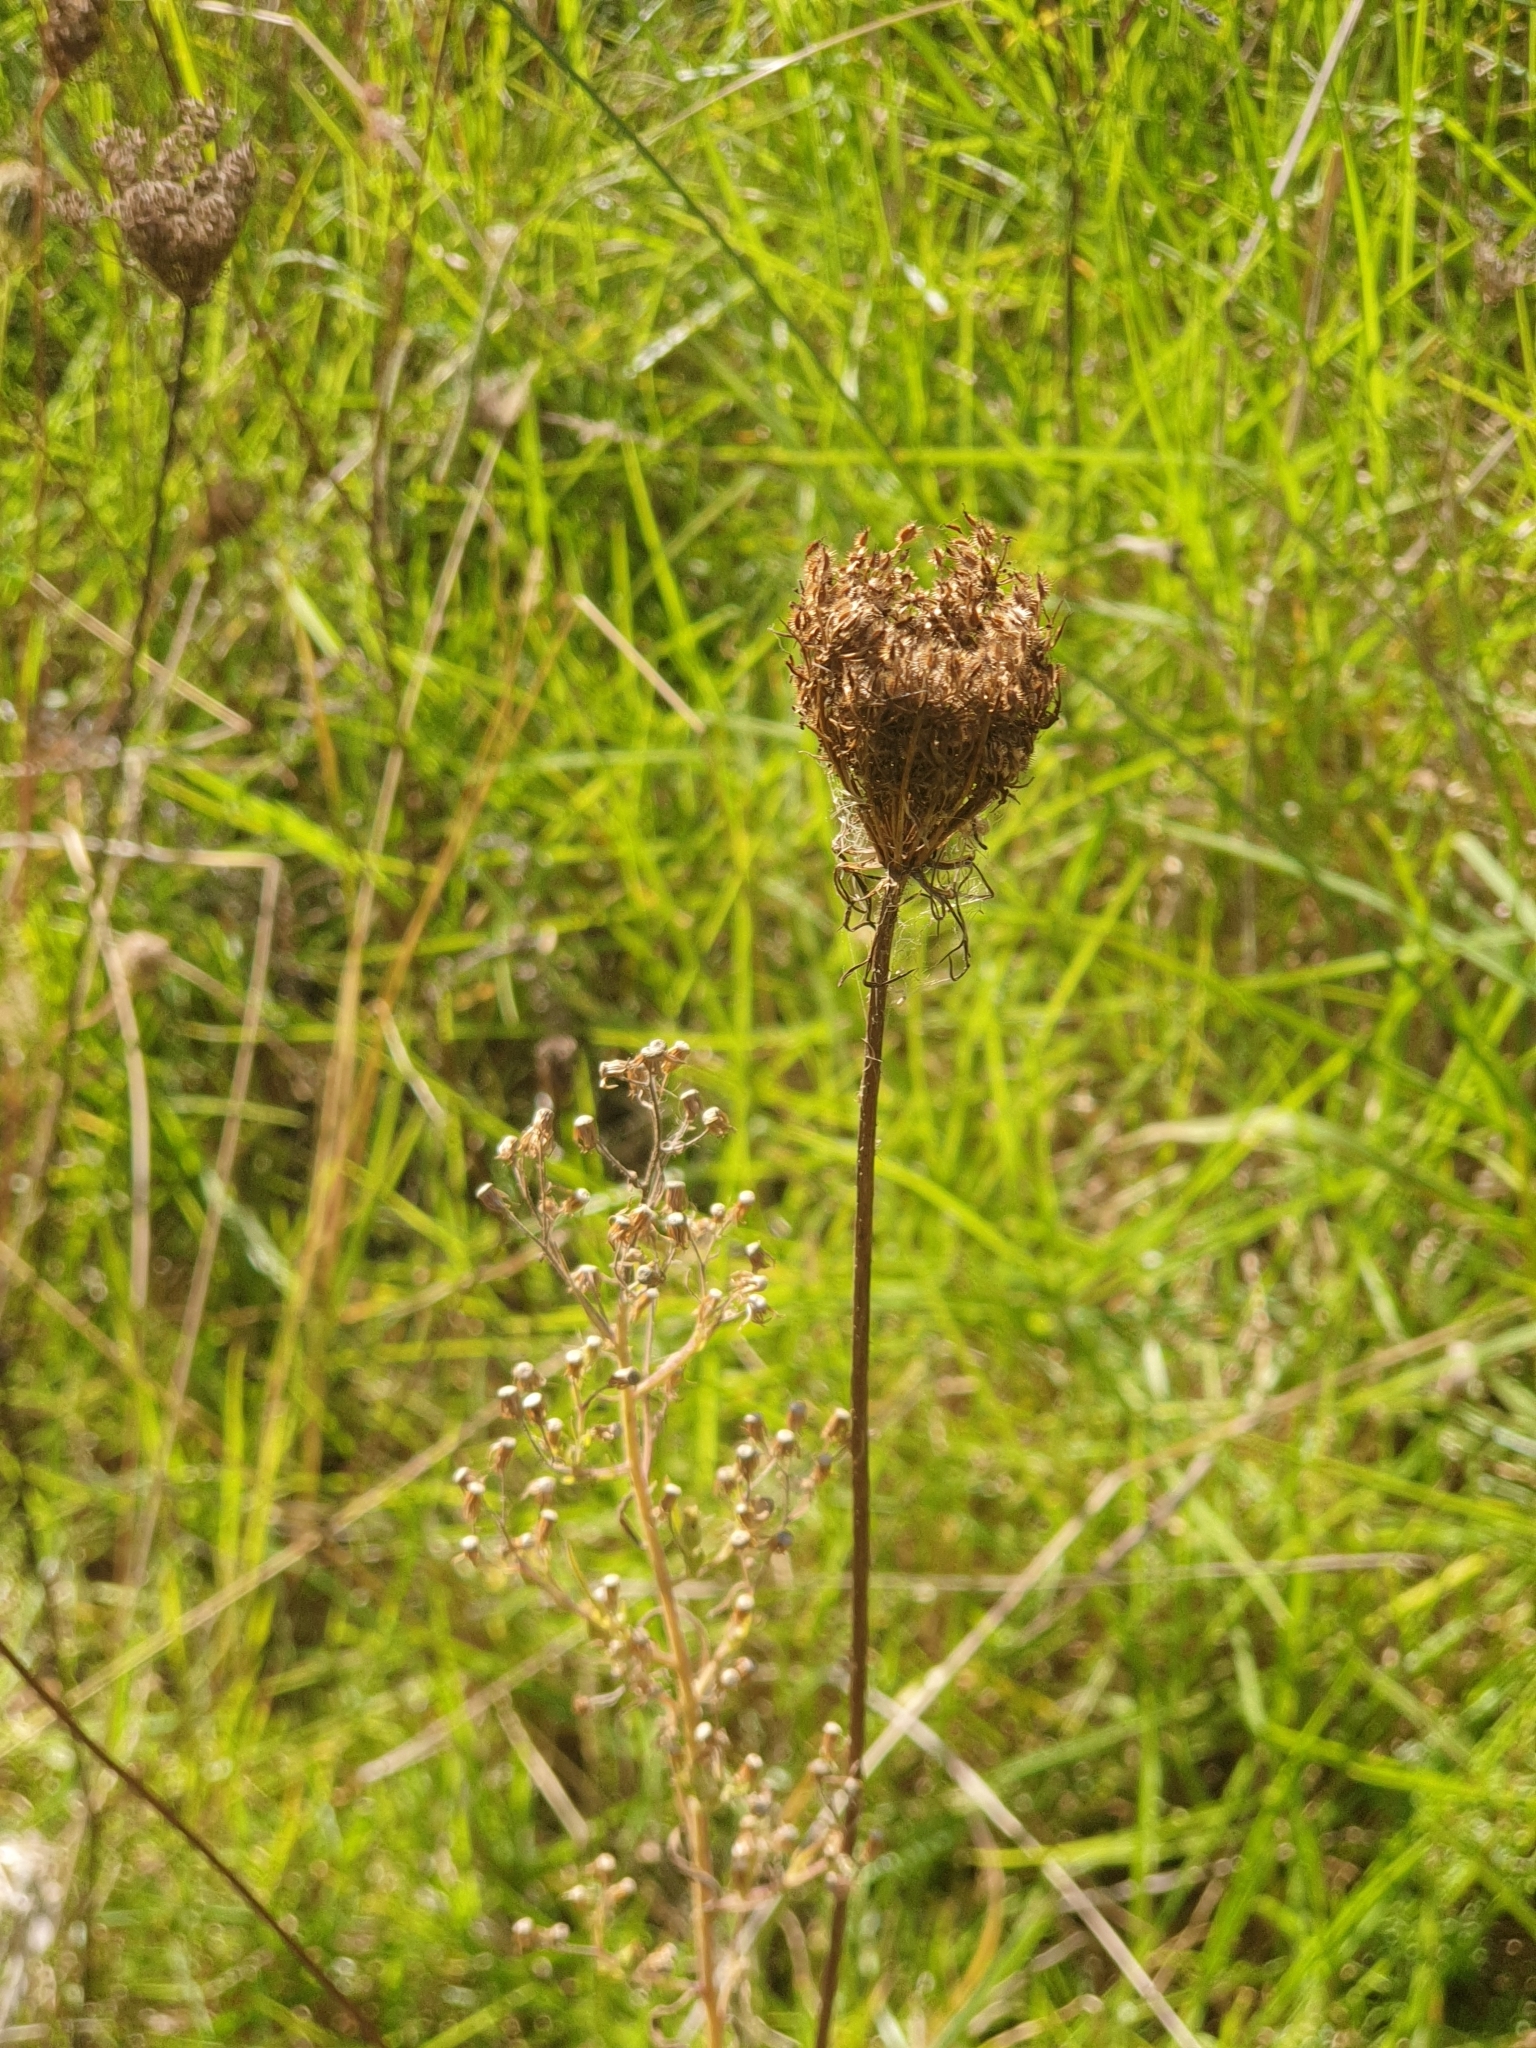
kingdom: Plantae
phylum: Tracheophyta
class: Magnoliopsida
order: Apiales
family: Apiaceae
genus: Daucus
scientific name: Daucus carota
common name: Wild carrot
